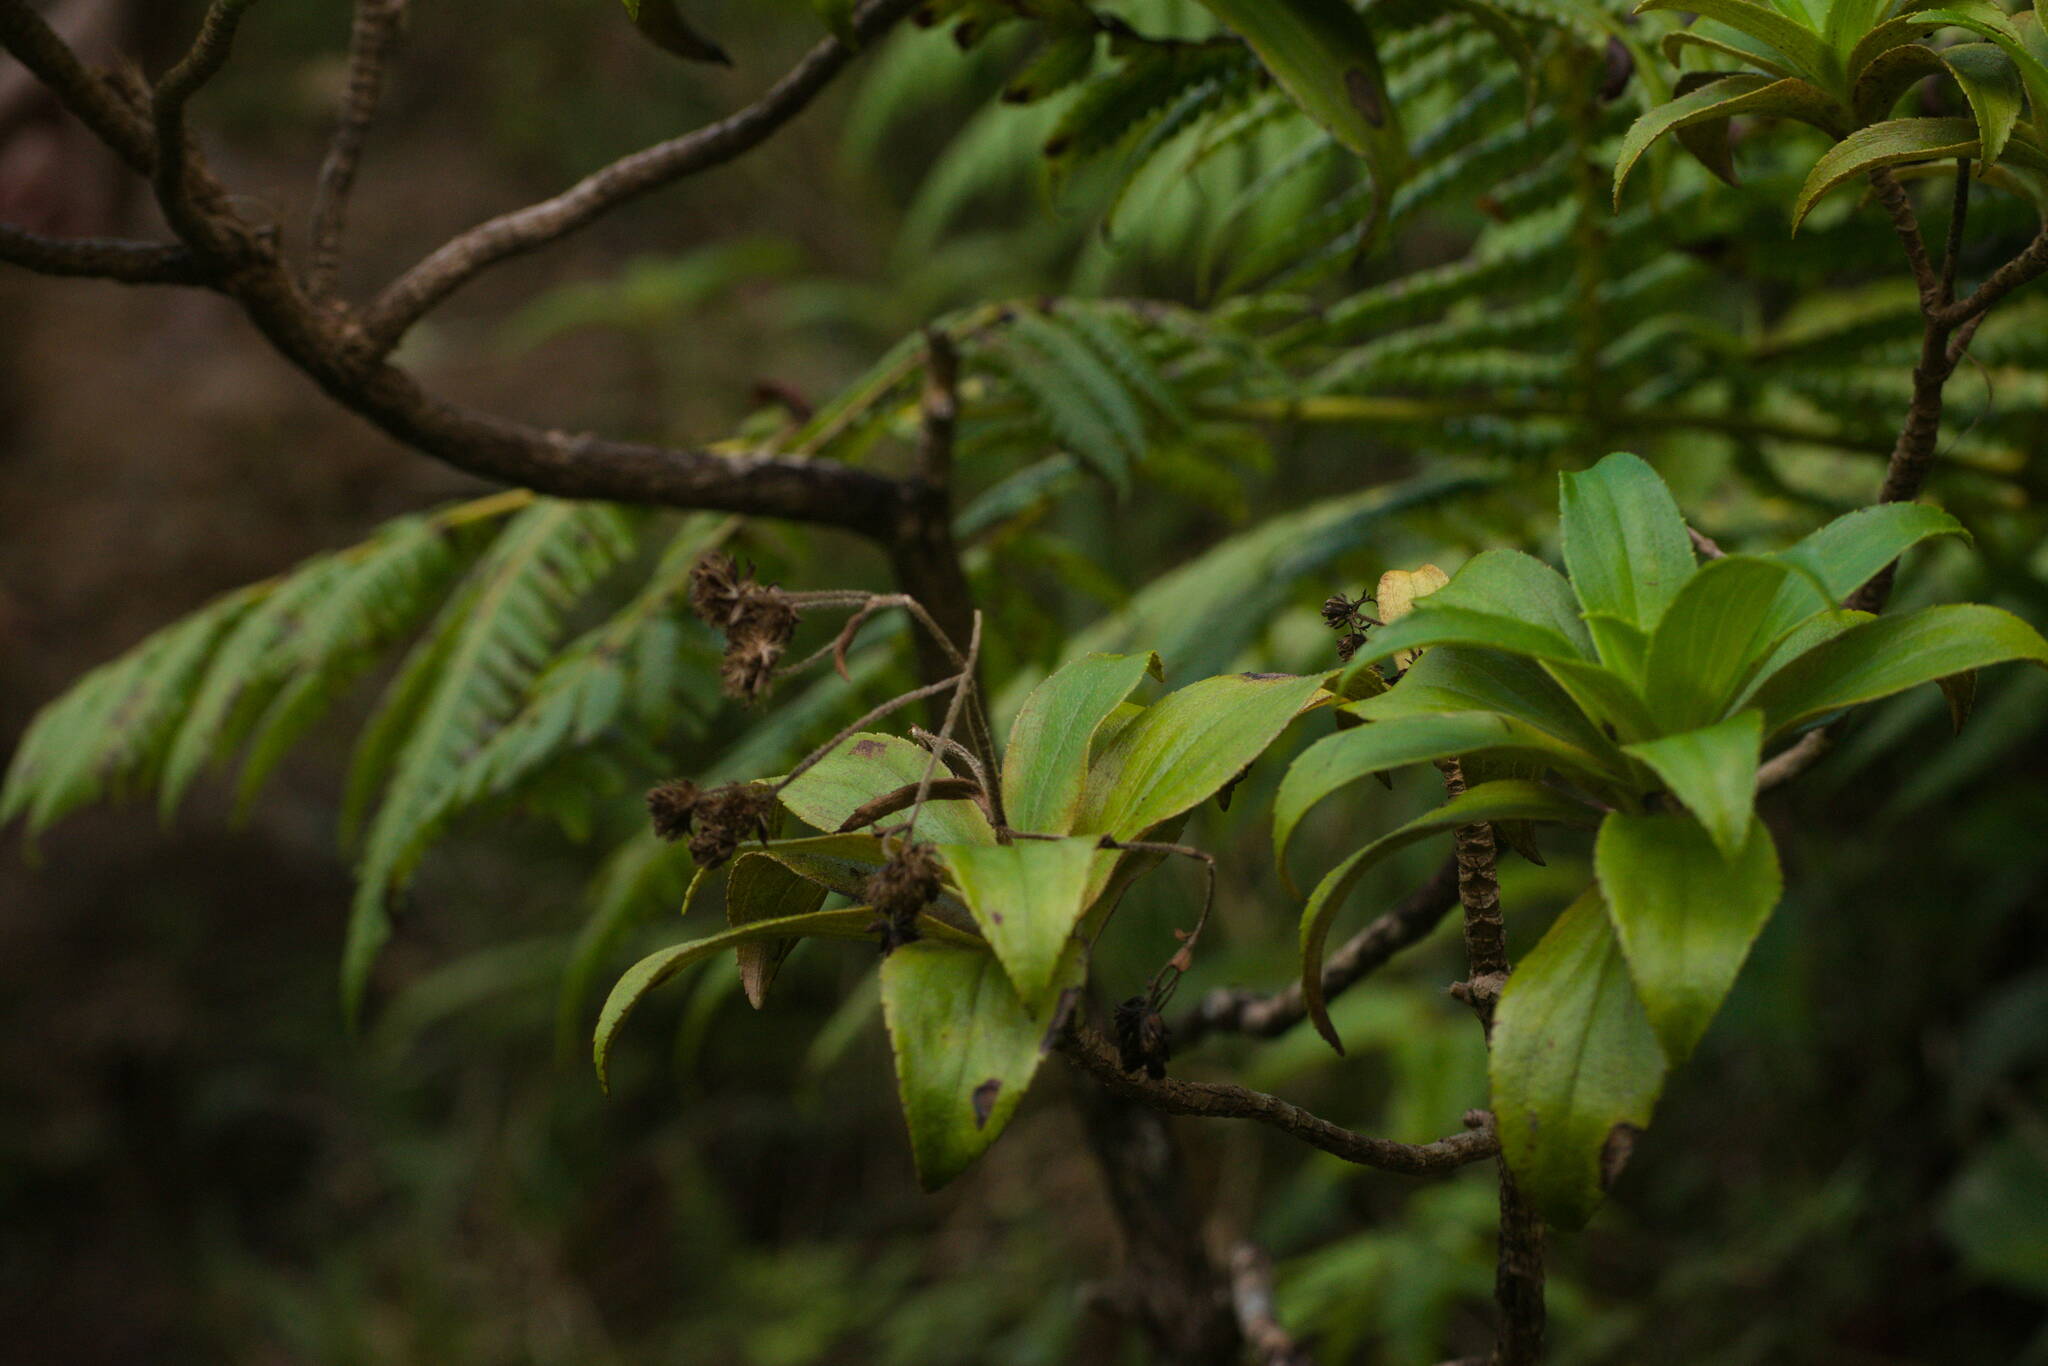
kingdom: Plantae
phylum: Tracheophyta
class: Magnoliopsida
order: Asterales
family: Asteraceae
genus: Dubautia
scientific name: Dubautia laxa
